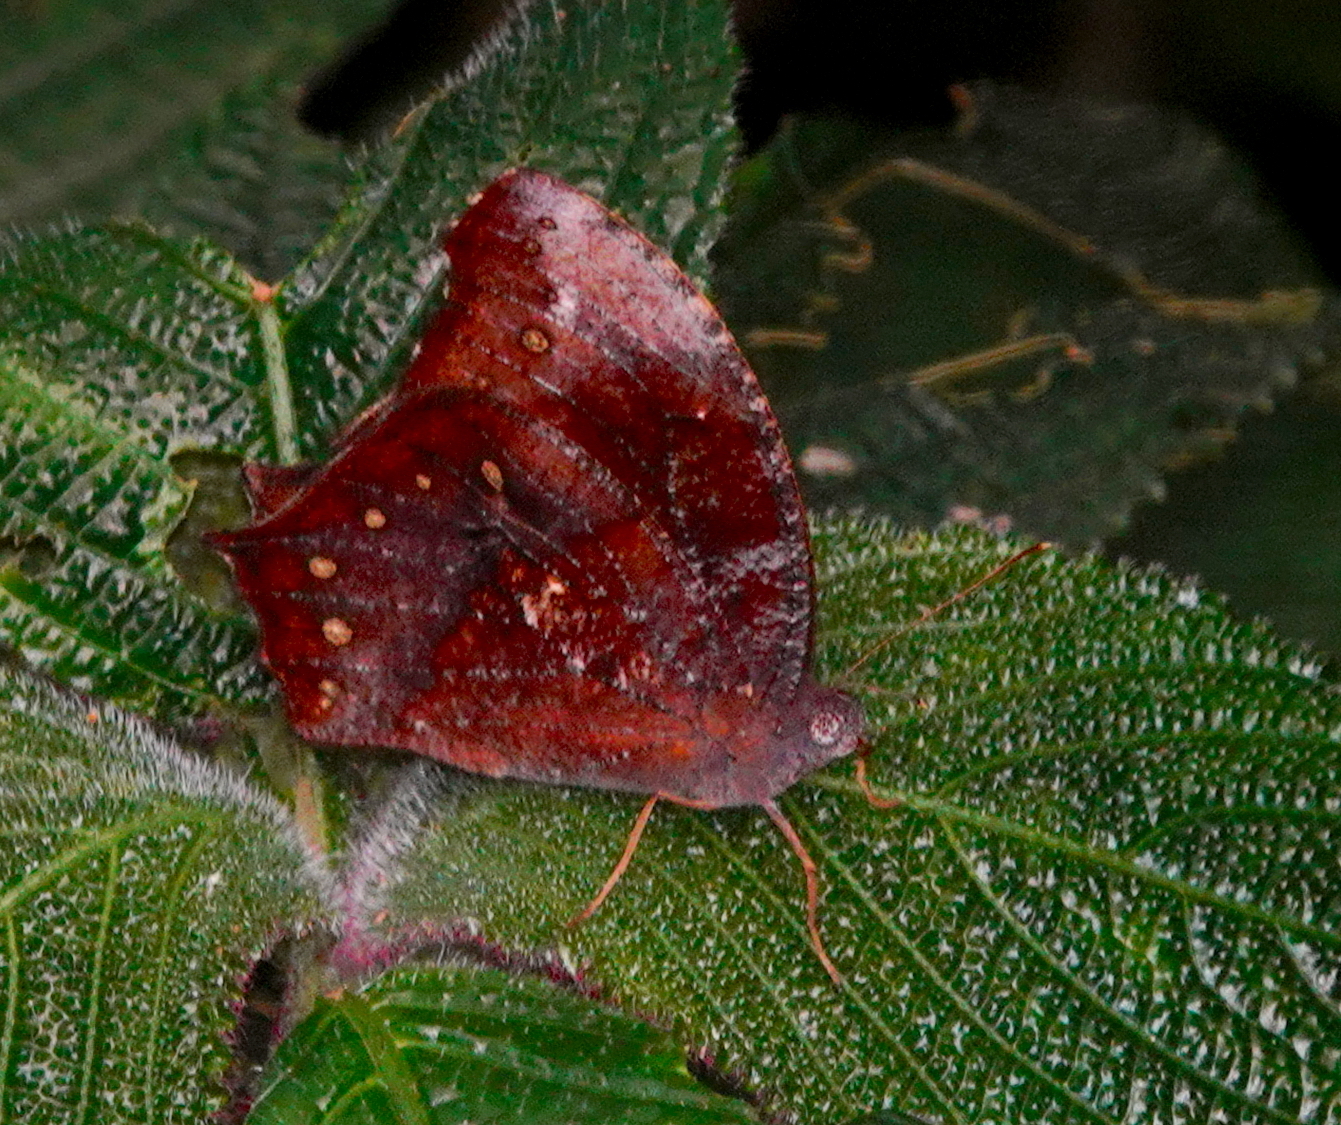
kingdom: Animalia
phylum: Arthropoda
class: Insecta
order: Lepidoptera
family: Nymphalidae
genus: Melanitis
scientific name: Melanitis phedima
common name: Dark evening brown
